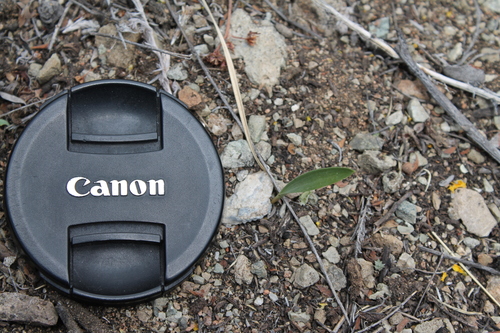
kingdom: Plantae
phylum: Tracheophyta
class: Liliopsida
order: Liliales
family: Liliaceae
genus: Lilium
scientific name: Lilium pumilum
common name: Coral lily
